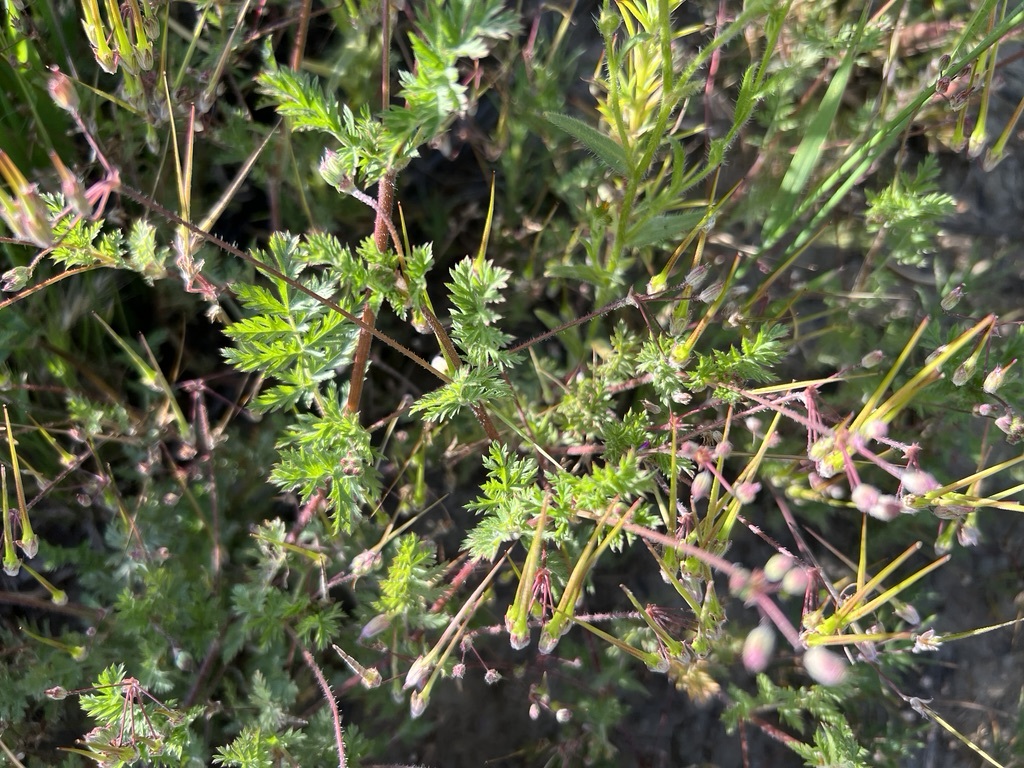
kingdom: Plantae
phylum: Tracheophyta
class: Magnoliopsida
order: Geraniales
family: Geraniaceae
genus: Erodium
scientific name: Erodium cicutarium
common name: Common stork's-bill
